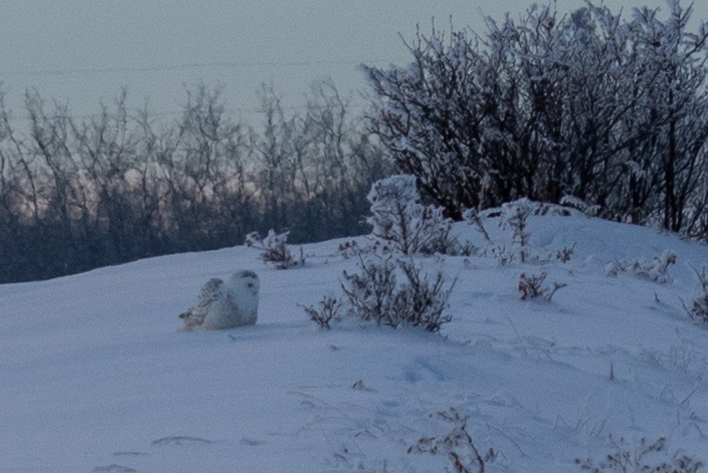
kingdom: Animalia
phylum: Chordata
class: Aves
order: Strigiformes
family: Strigidae
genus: Bubo
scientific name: Bubo scandiacus
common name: Snowy owl
